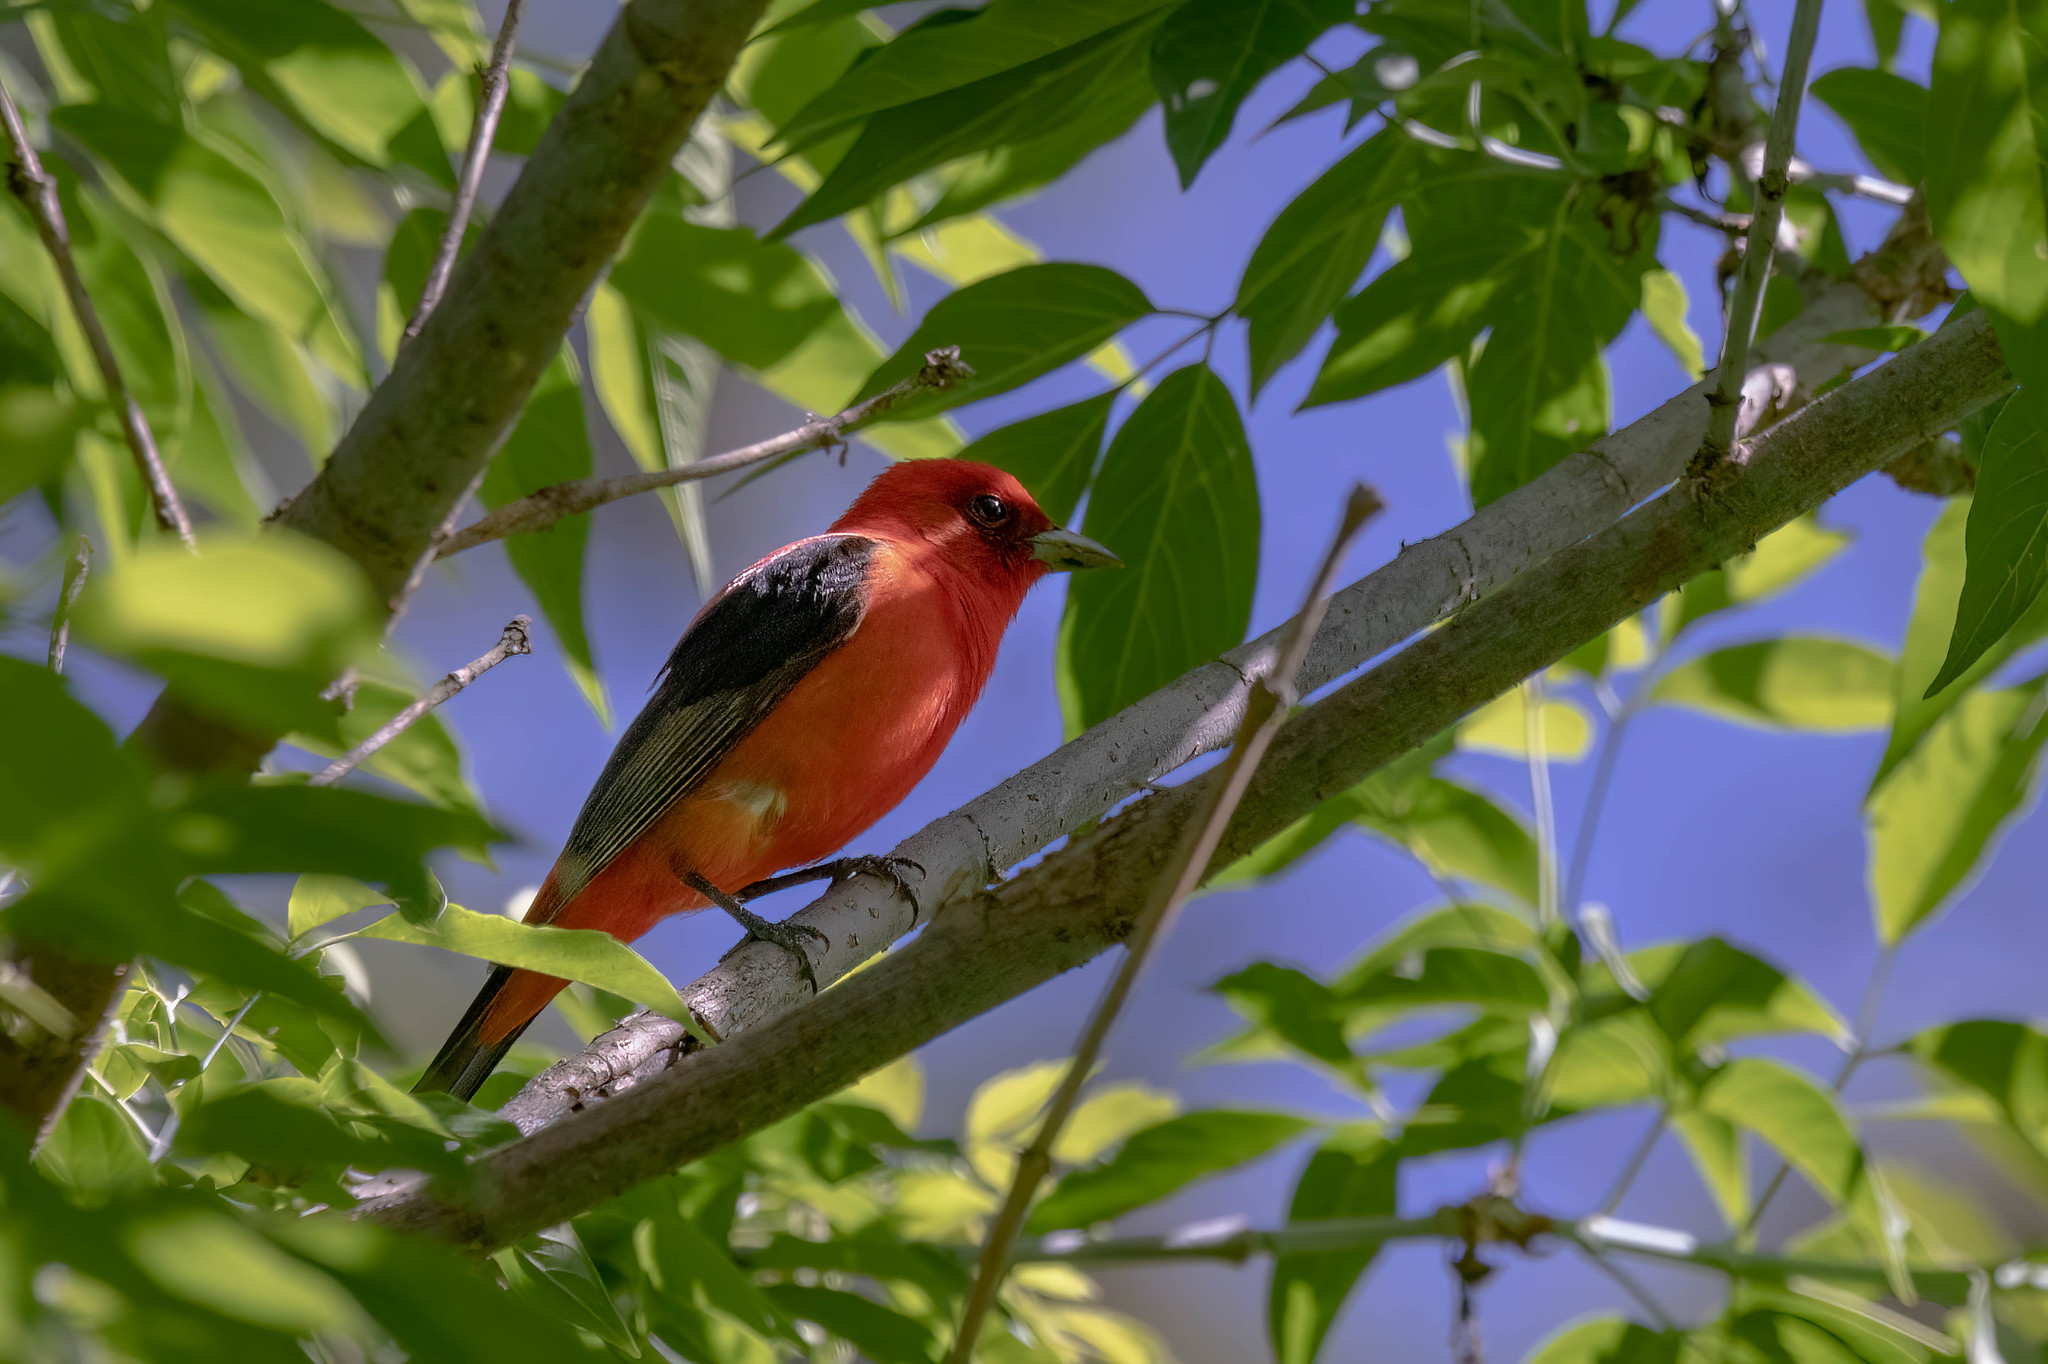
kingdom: Animalia
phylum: Chordata
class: Aves
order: Passeriformes
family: Cardinalidae
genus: Piranga
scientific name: Piranga olivacea
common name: Scarlet tanager
